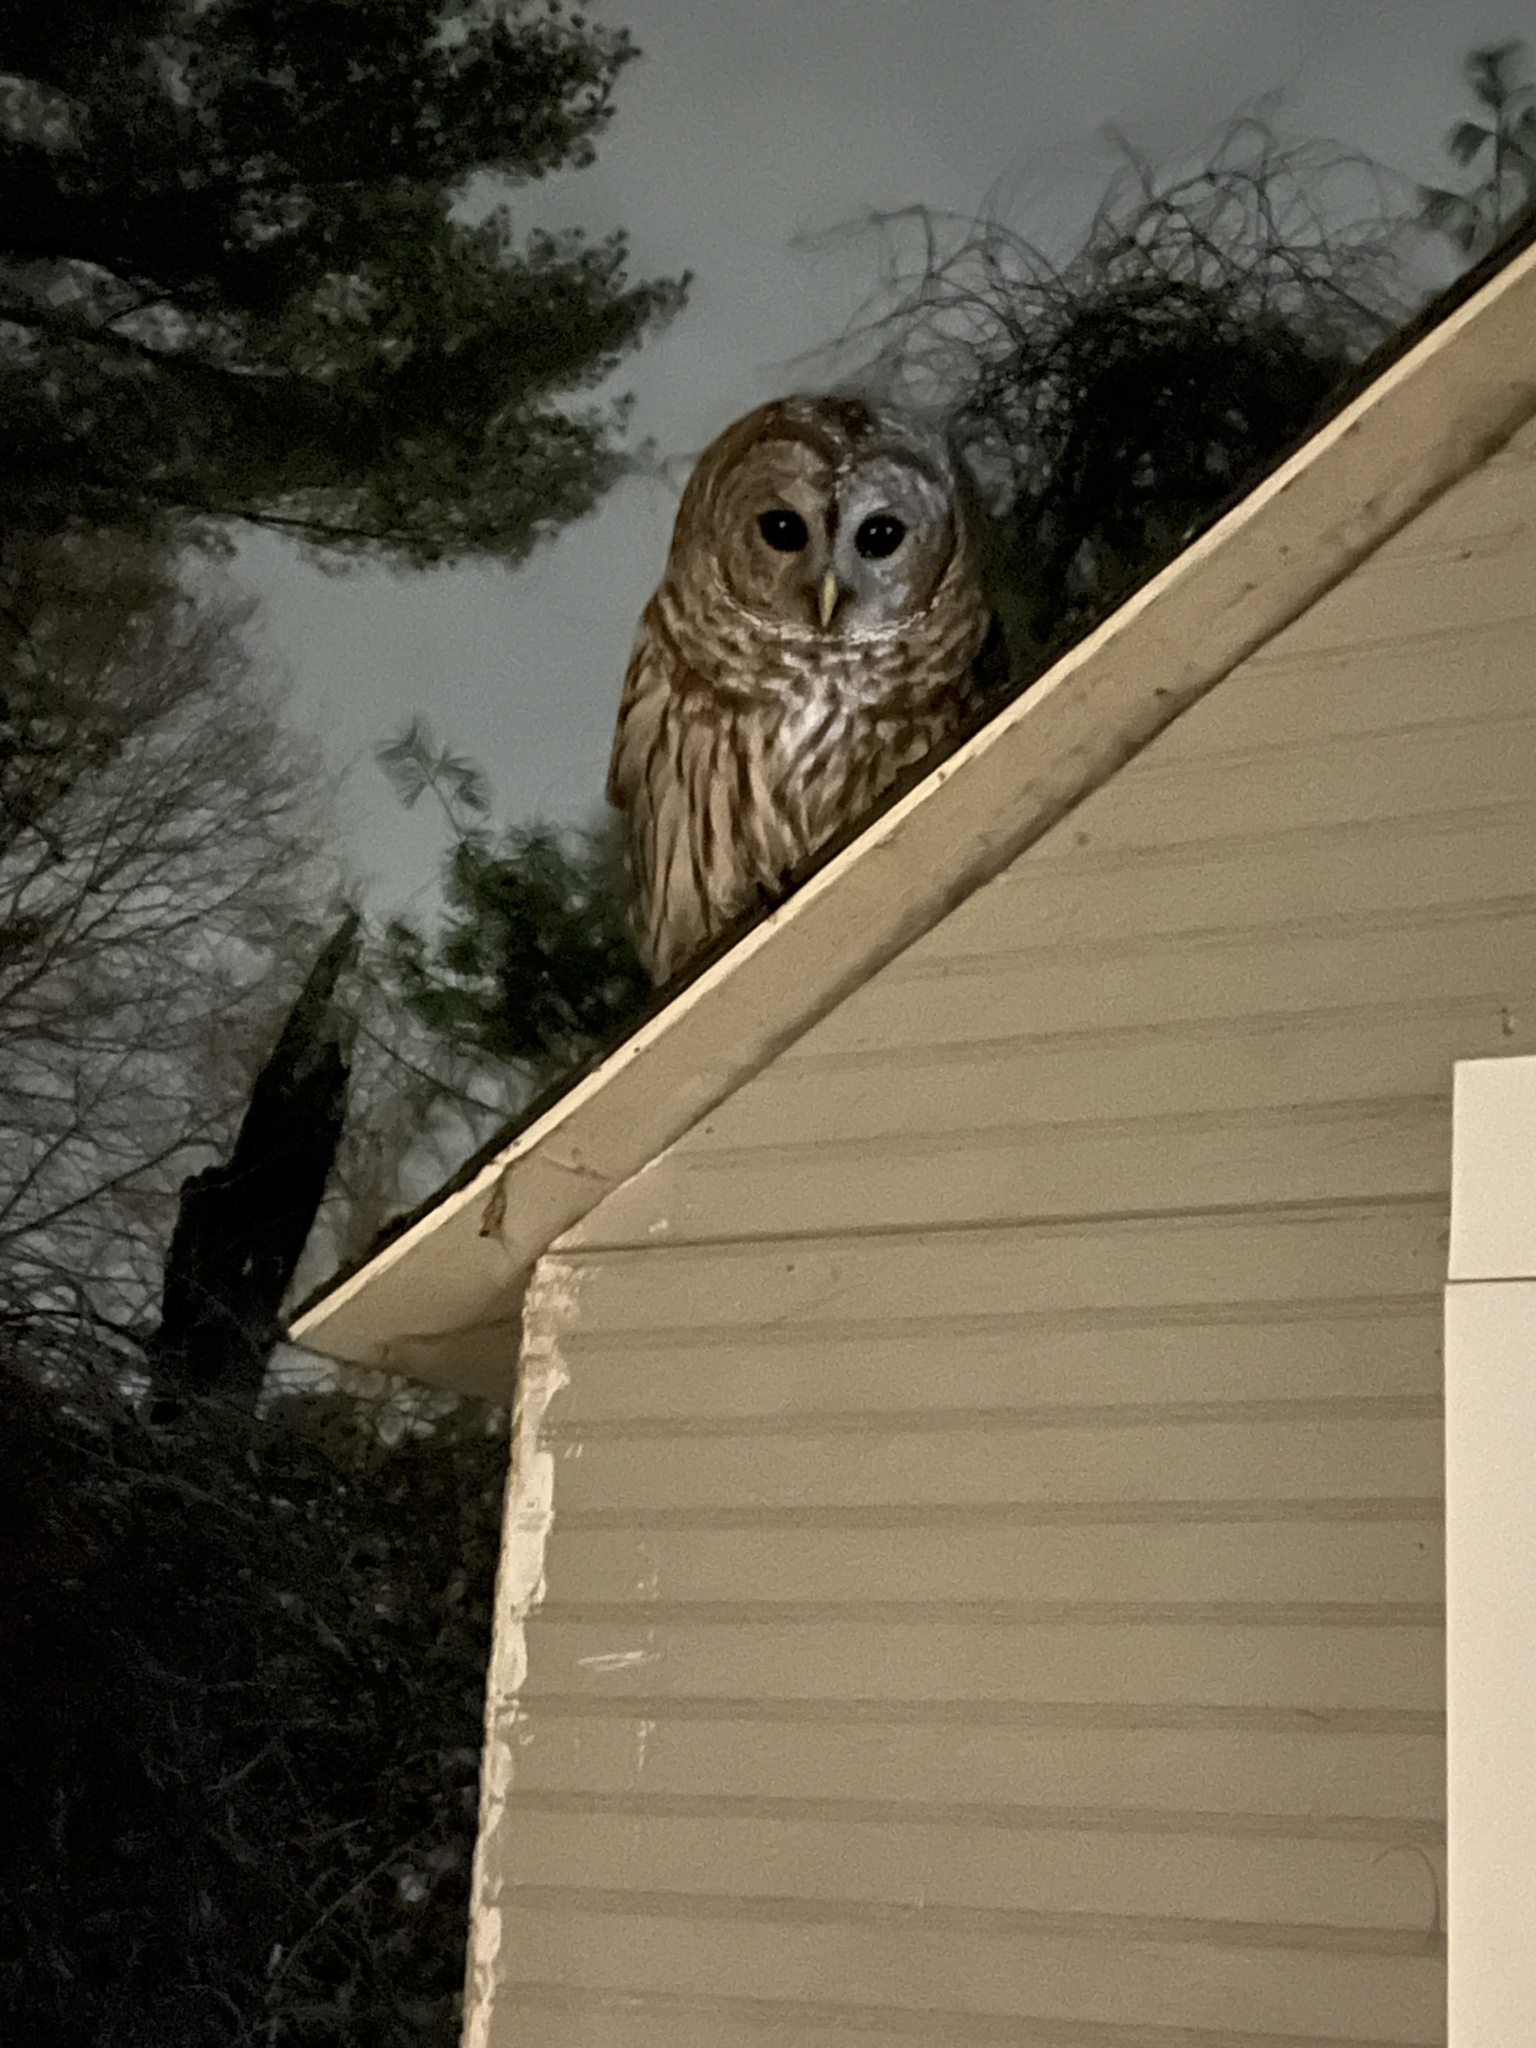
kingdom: Animalia
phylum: Chordata
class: Aves
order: Strigiformes
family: Strigidae
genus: Strix
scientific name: Strix varia
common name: Barred owl
